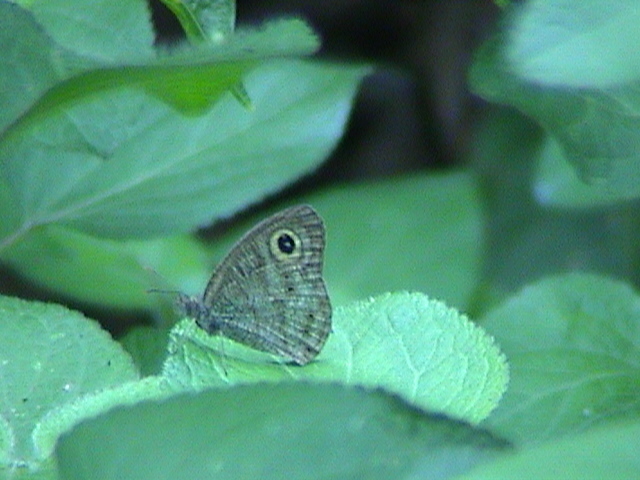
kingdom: Animalia
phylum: Arthropoda
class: Insecta
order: Lepidoptera
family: Nymphalidae
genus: Ypthima
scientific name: Ypthima baldus
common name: Common five-ring
